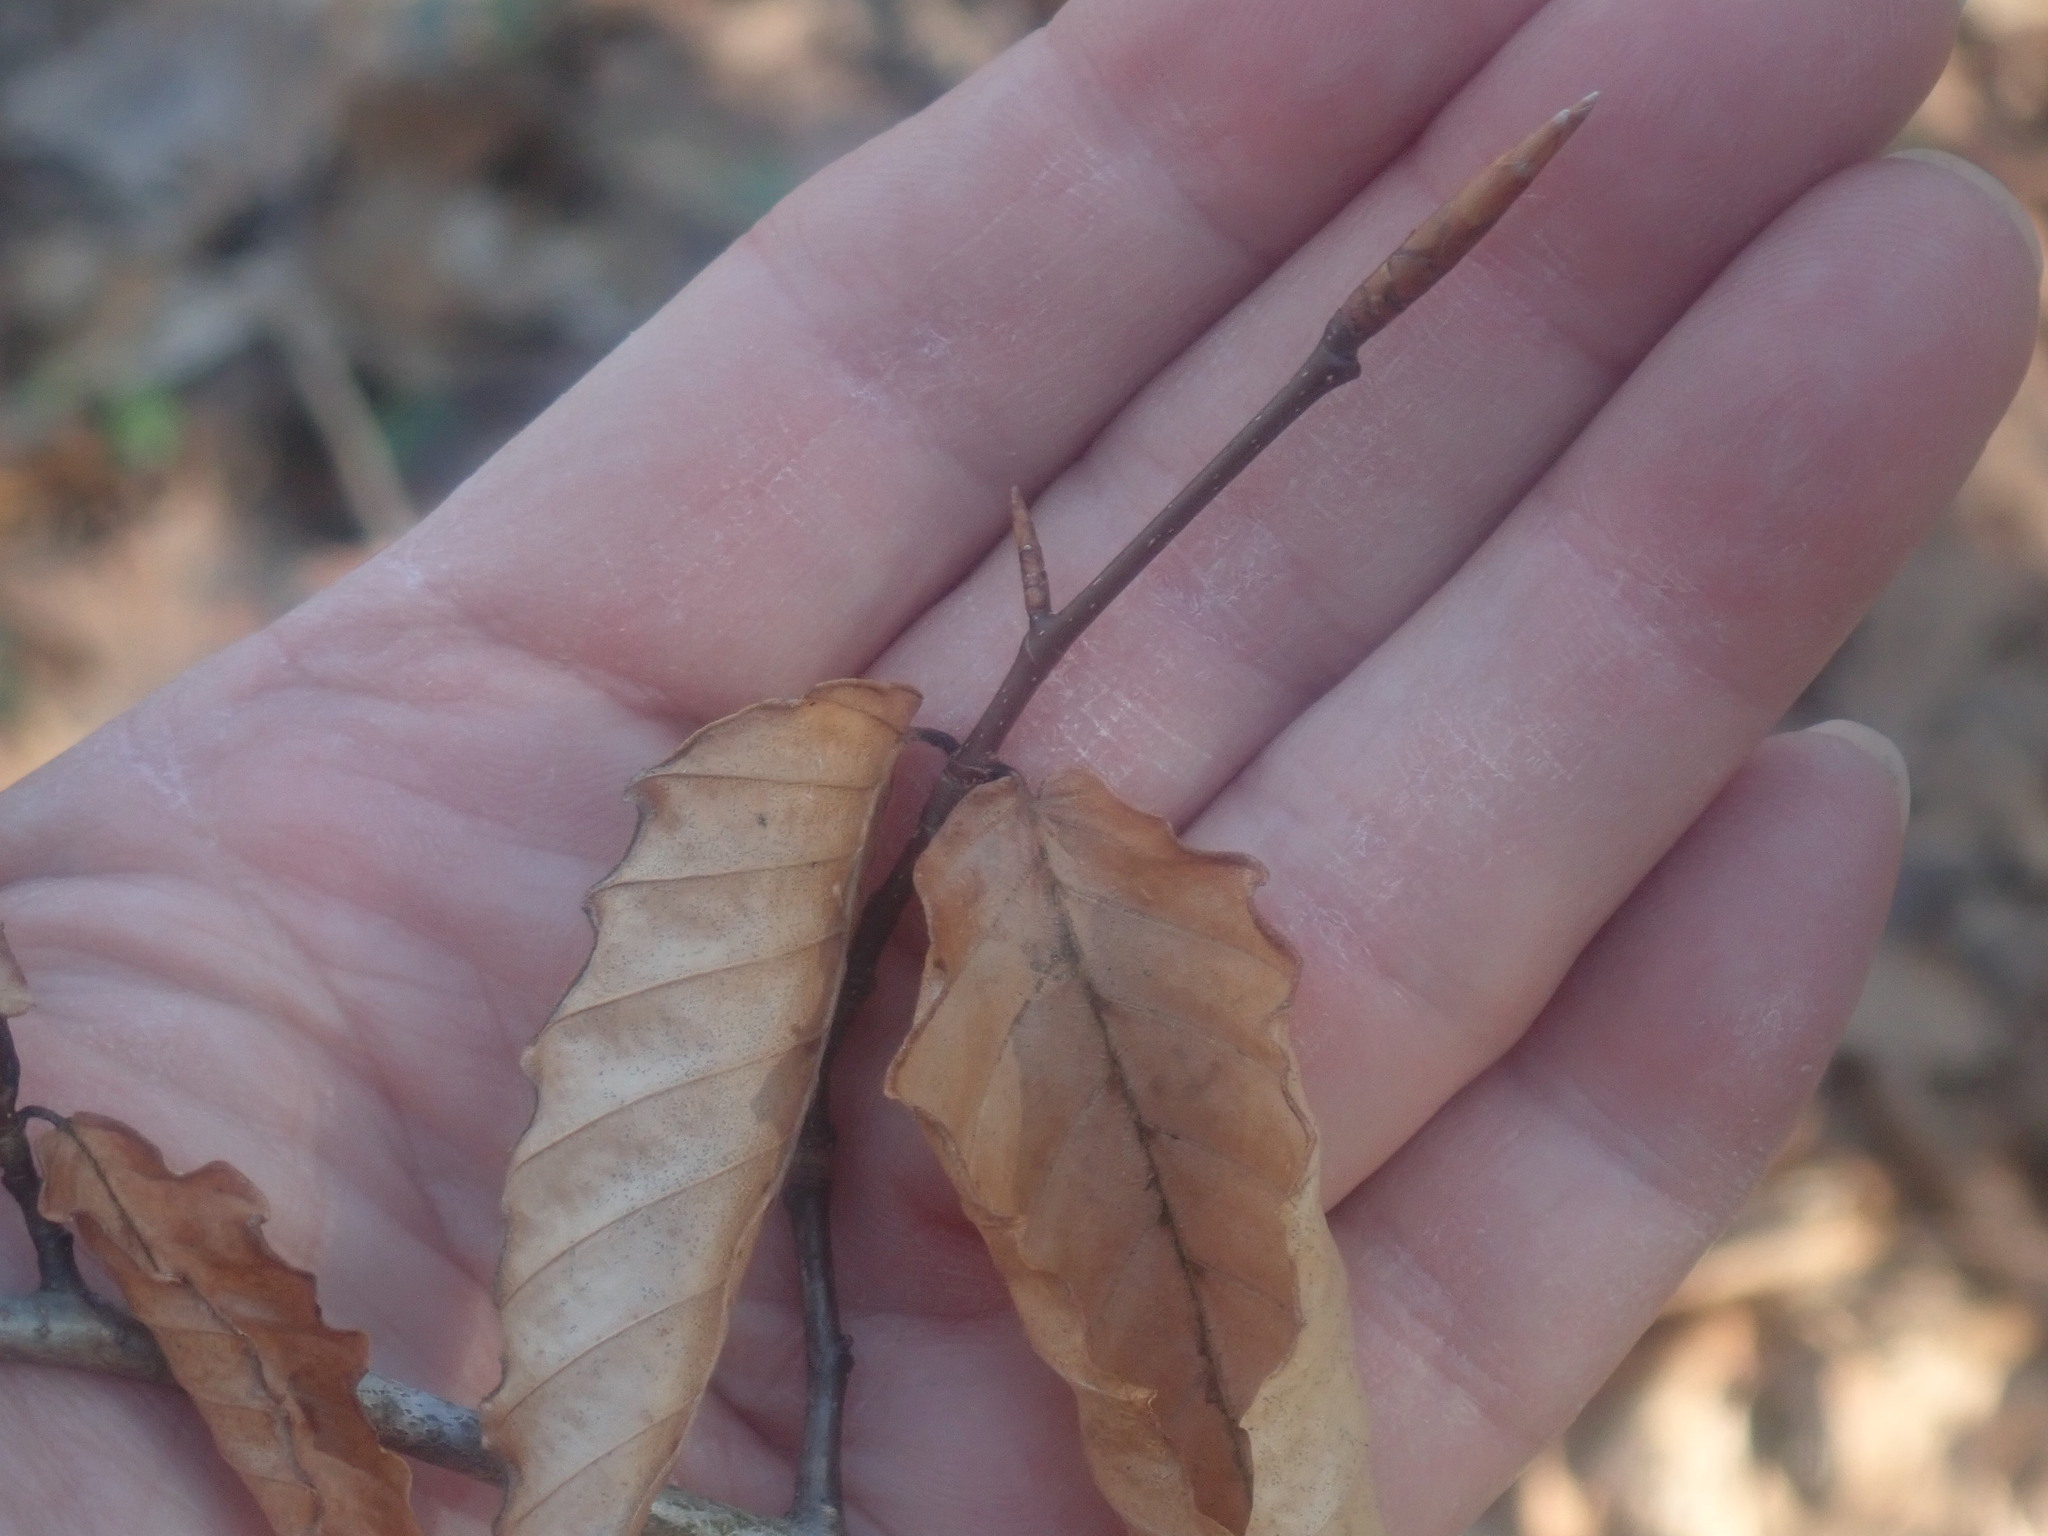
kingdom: Plantae
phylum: Tracheophyta
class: Magnoliopsida
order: Fagales
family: Fagaceae
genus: Fagus
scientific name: Fagus grandifolia
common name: American beech
